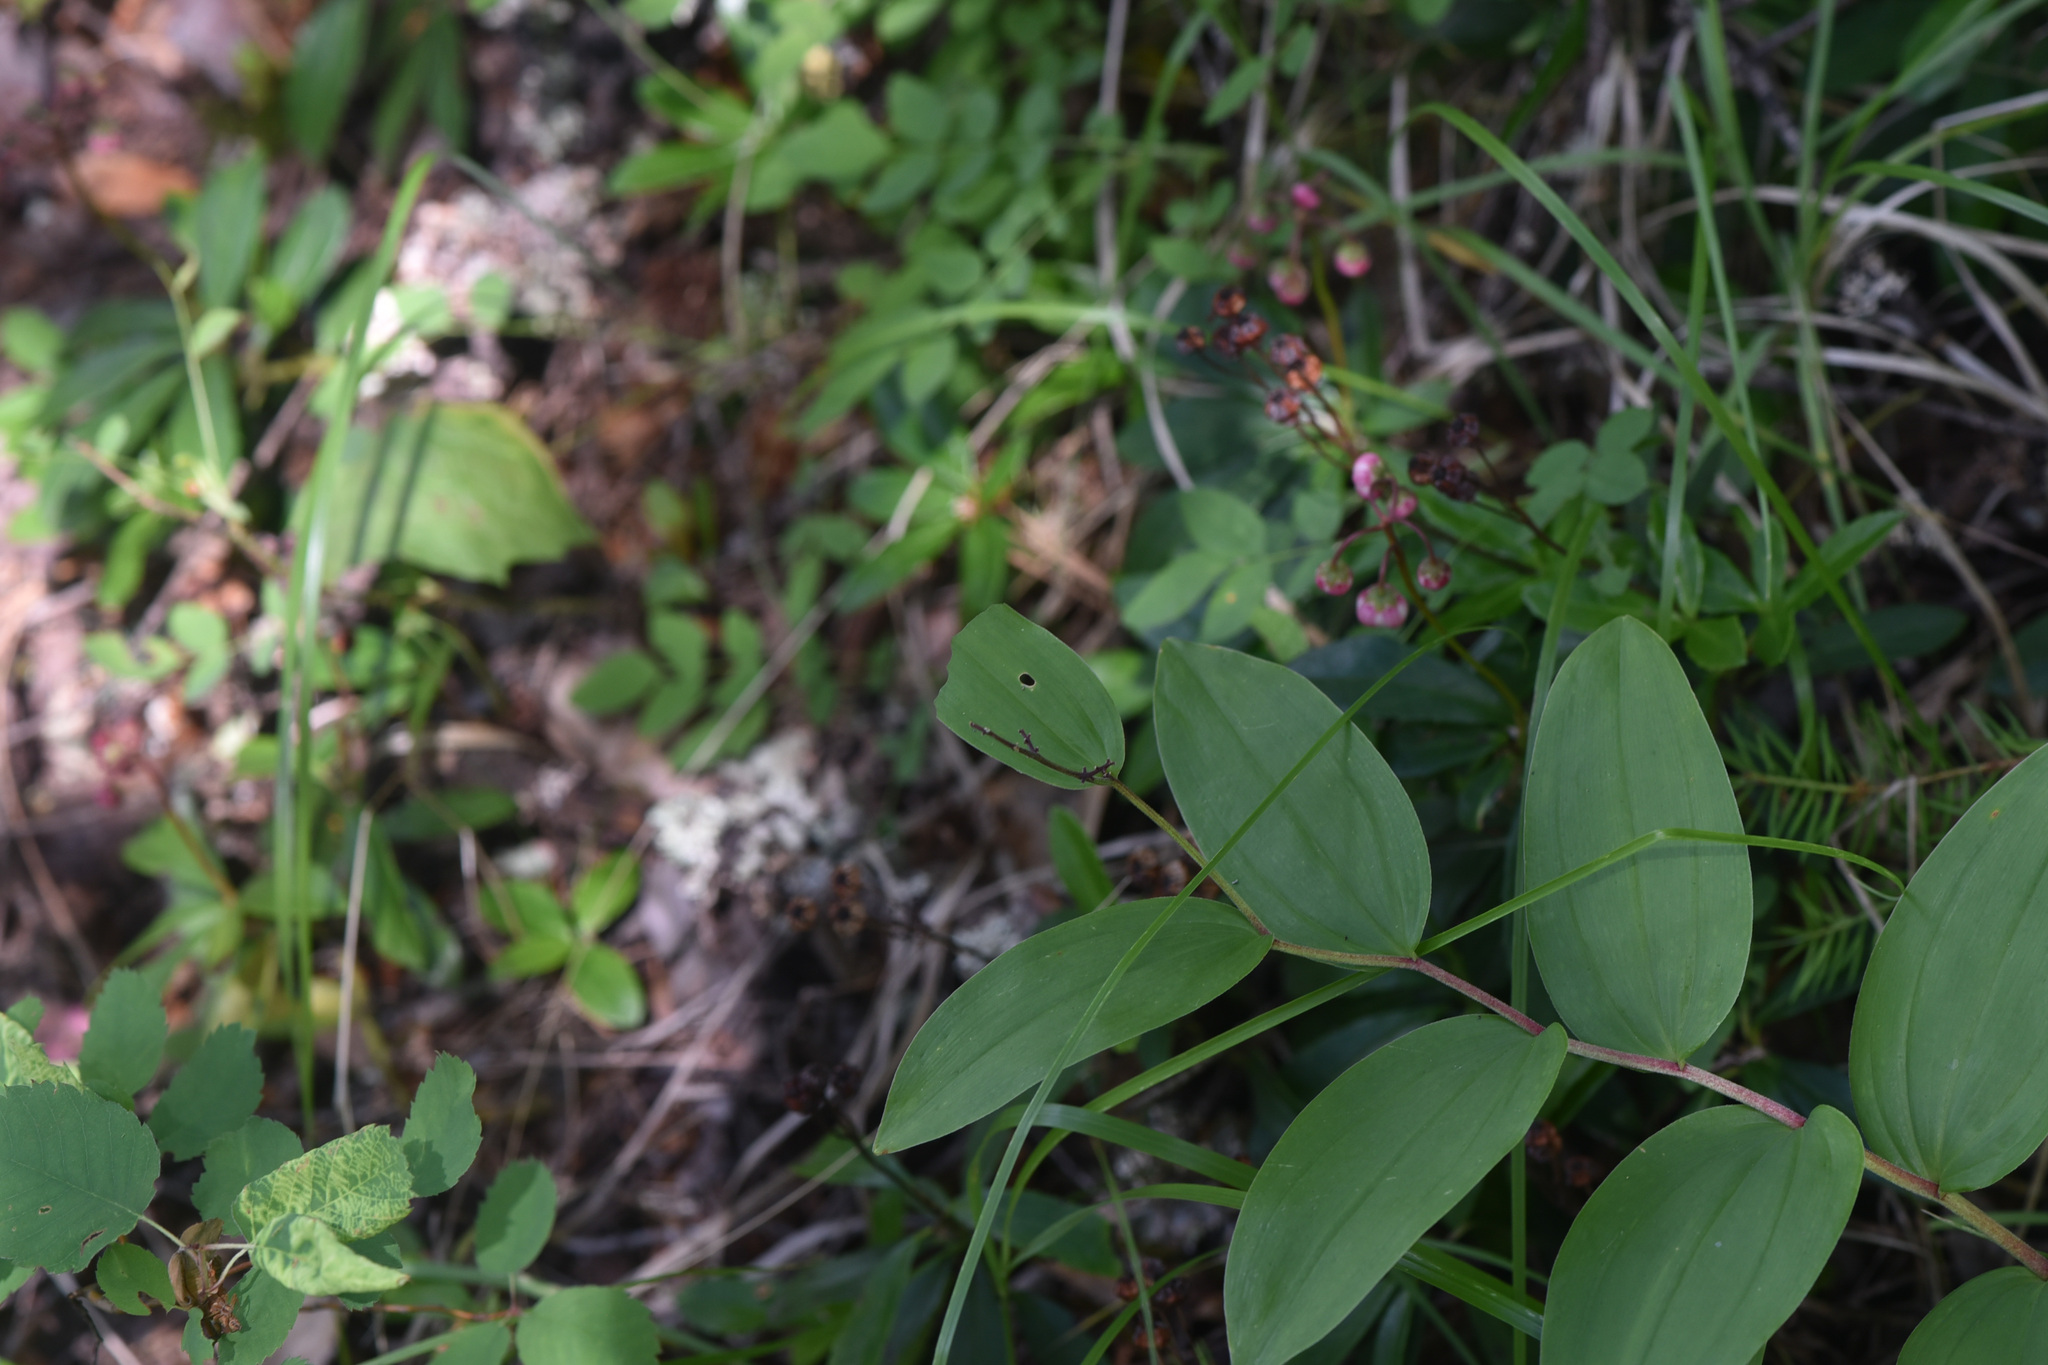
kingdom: Plantae
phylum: Tracheophyta
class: Liliopsida
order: Asparagales
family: Asparagaceae
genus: Maianthemum
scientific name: Maianthemum racemosum
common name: False spikenard
